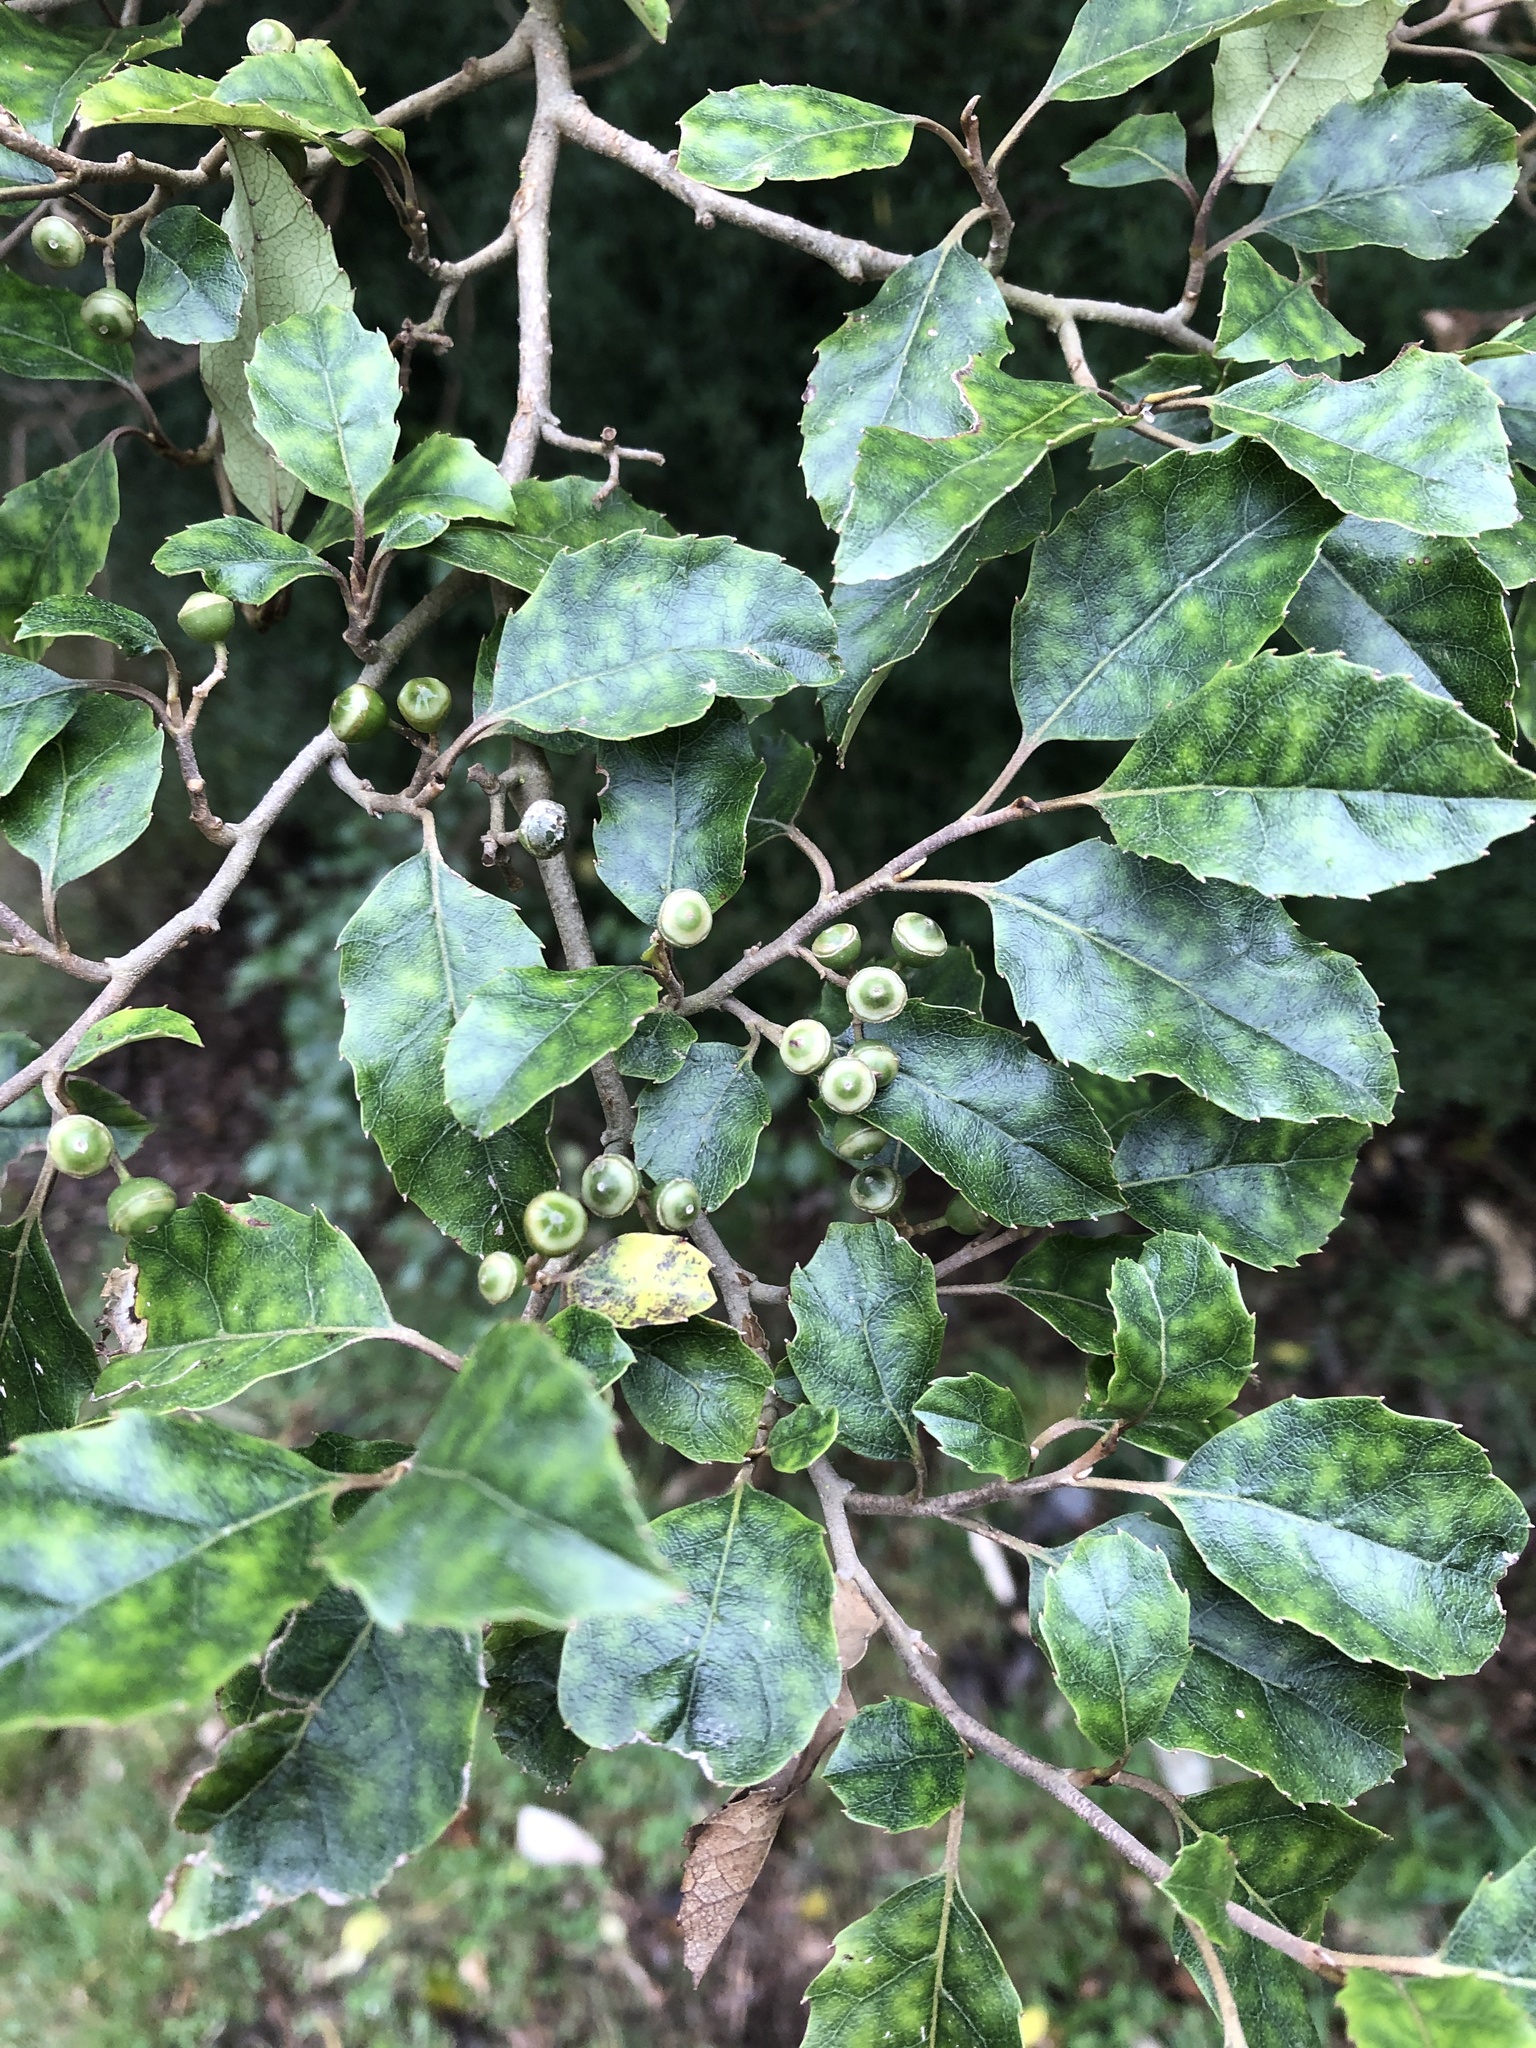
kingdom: Plantae
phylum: Tracheophyta
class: Magnoliopsida
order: Asterales
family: Rousseaceae
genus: Carpodetus
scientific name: Carpodetus serratus
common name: White mapau
